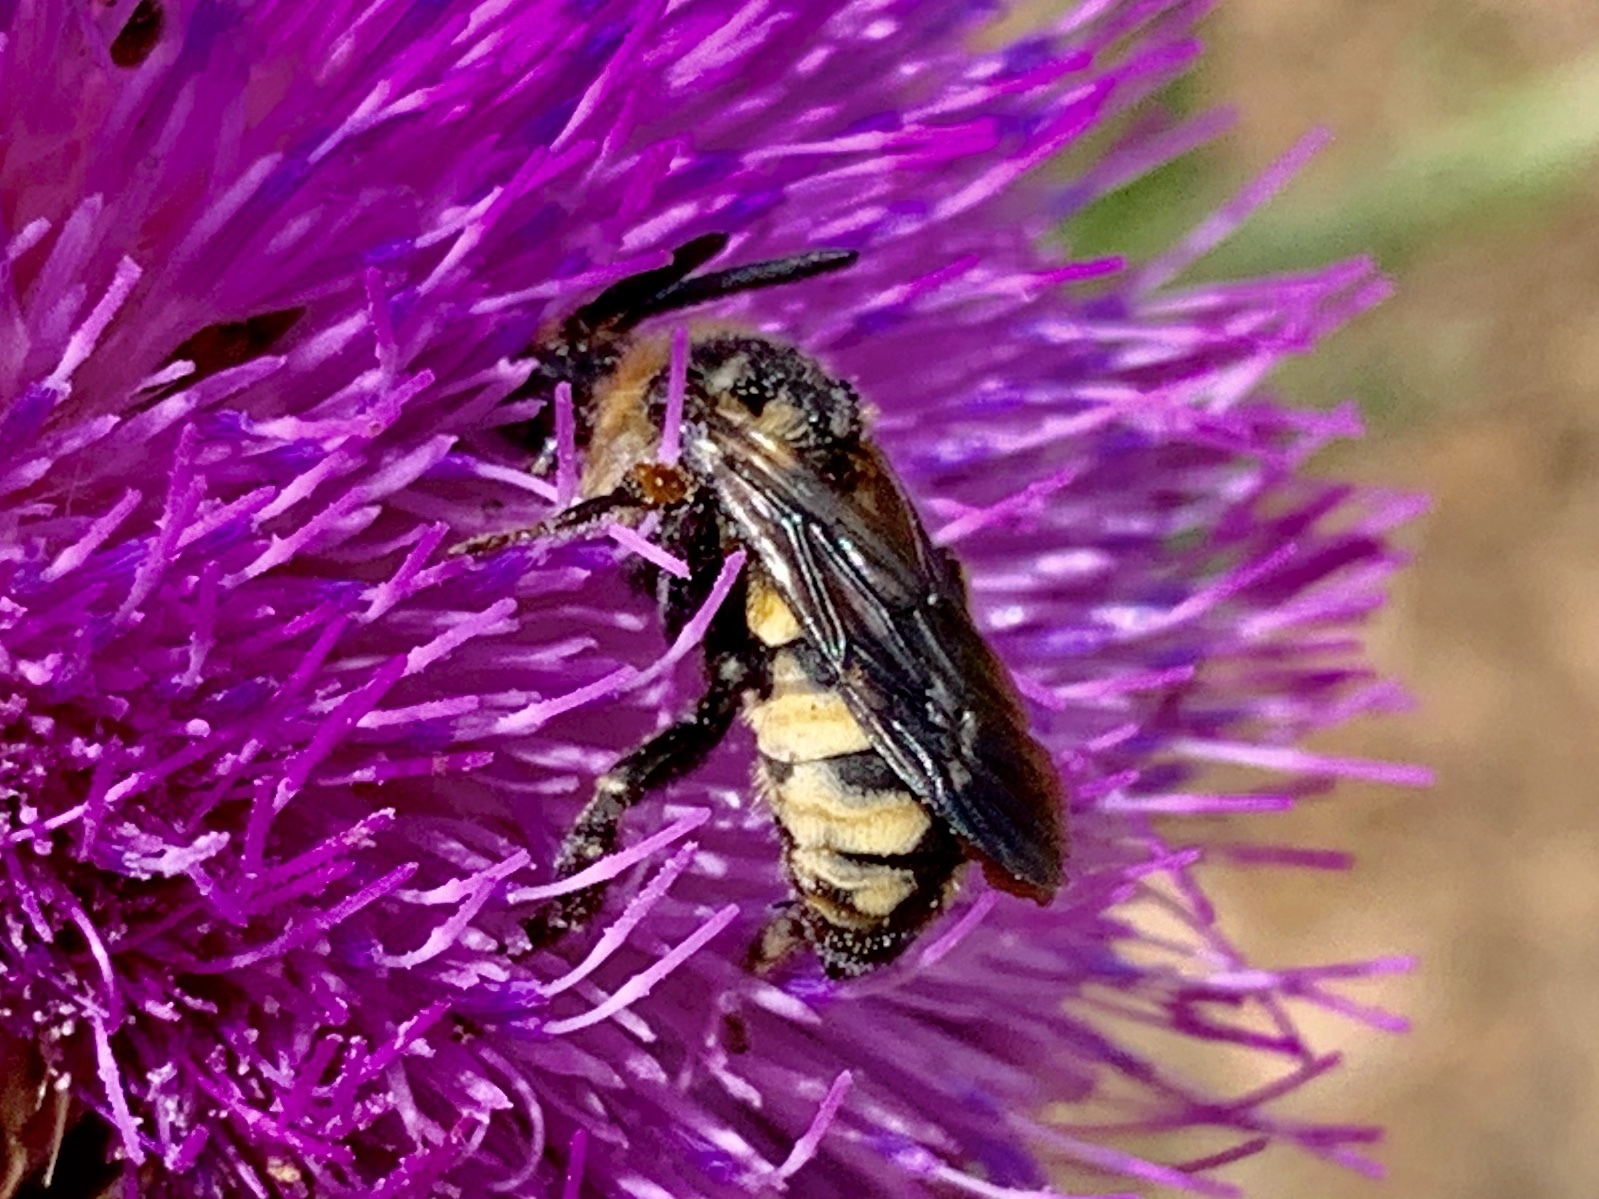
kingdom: Animalia
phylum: Arthropoda
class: Insecta
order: Hymenoptera
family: Apidae
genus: Xeromelecta
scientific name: Xeromelecta interrupta
